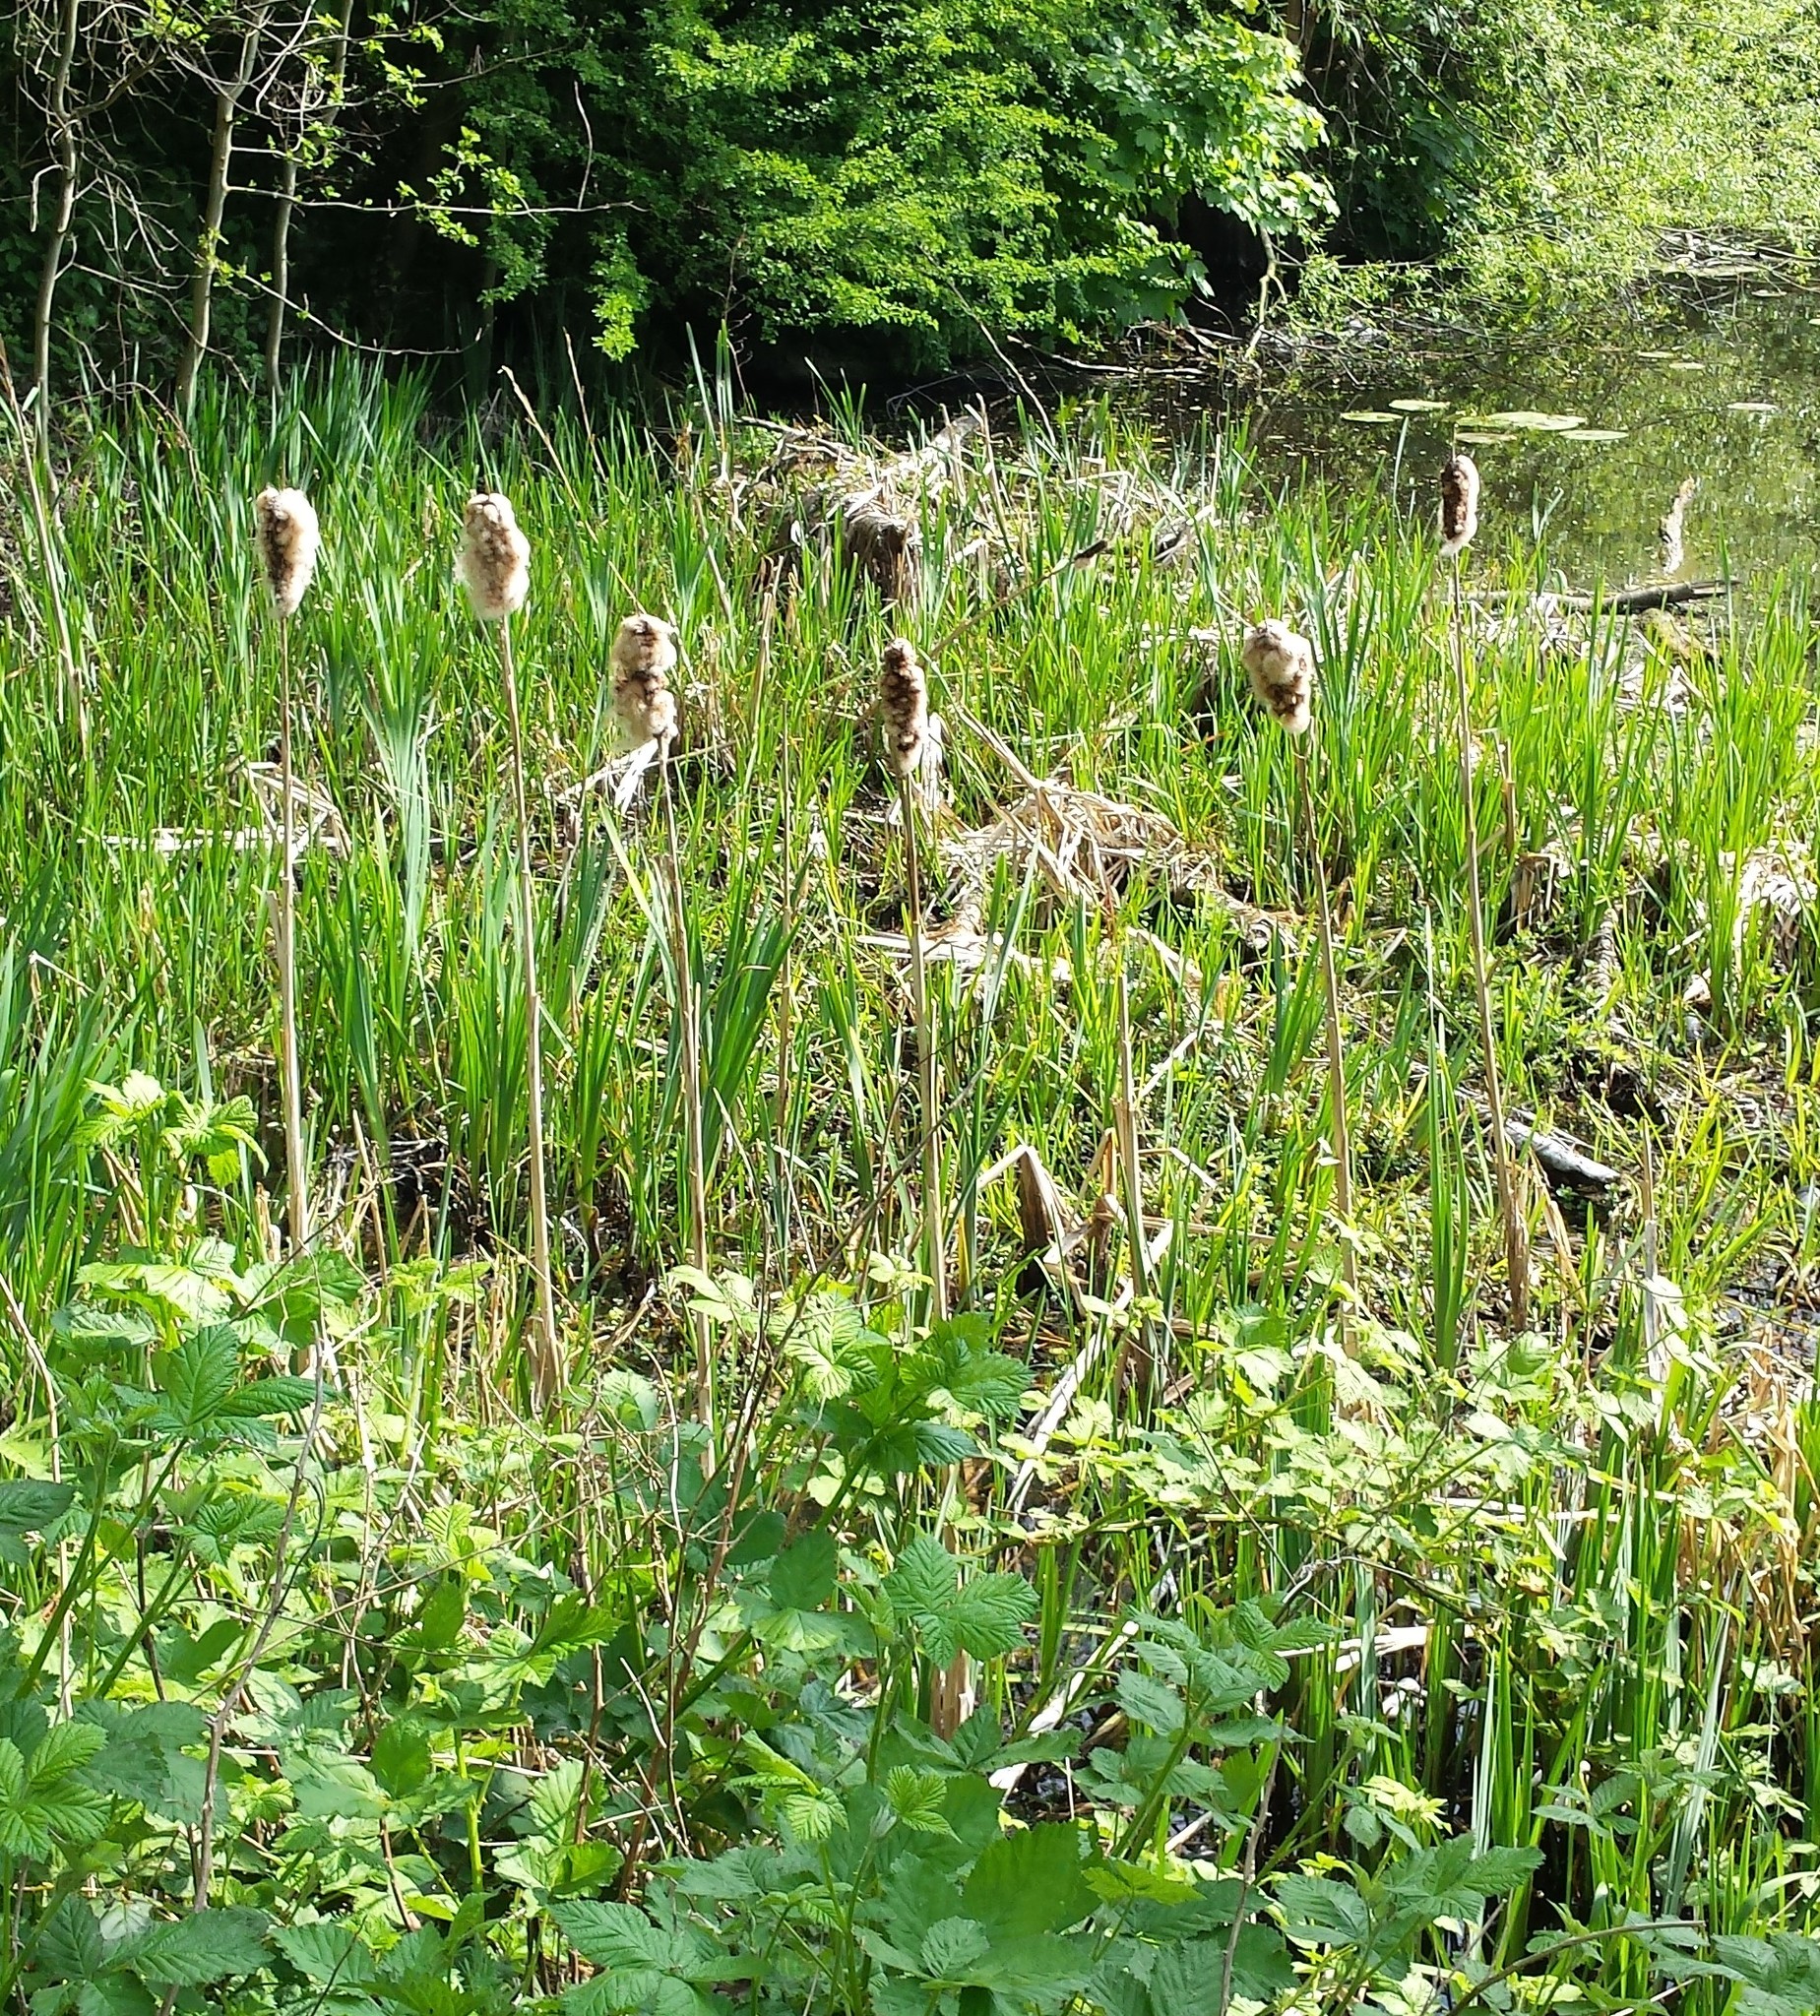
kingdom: Plantae
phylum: Tracheophyta
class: Liliopsida
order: Poales
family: Typhaceae
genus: Typha
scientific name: Typha latifolia
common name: Broadleaf cattail
